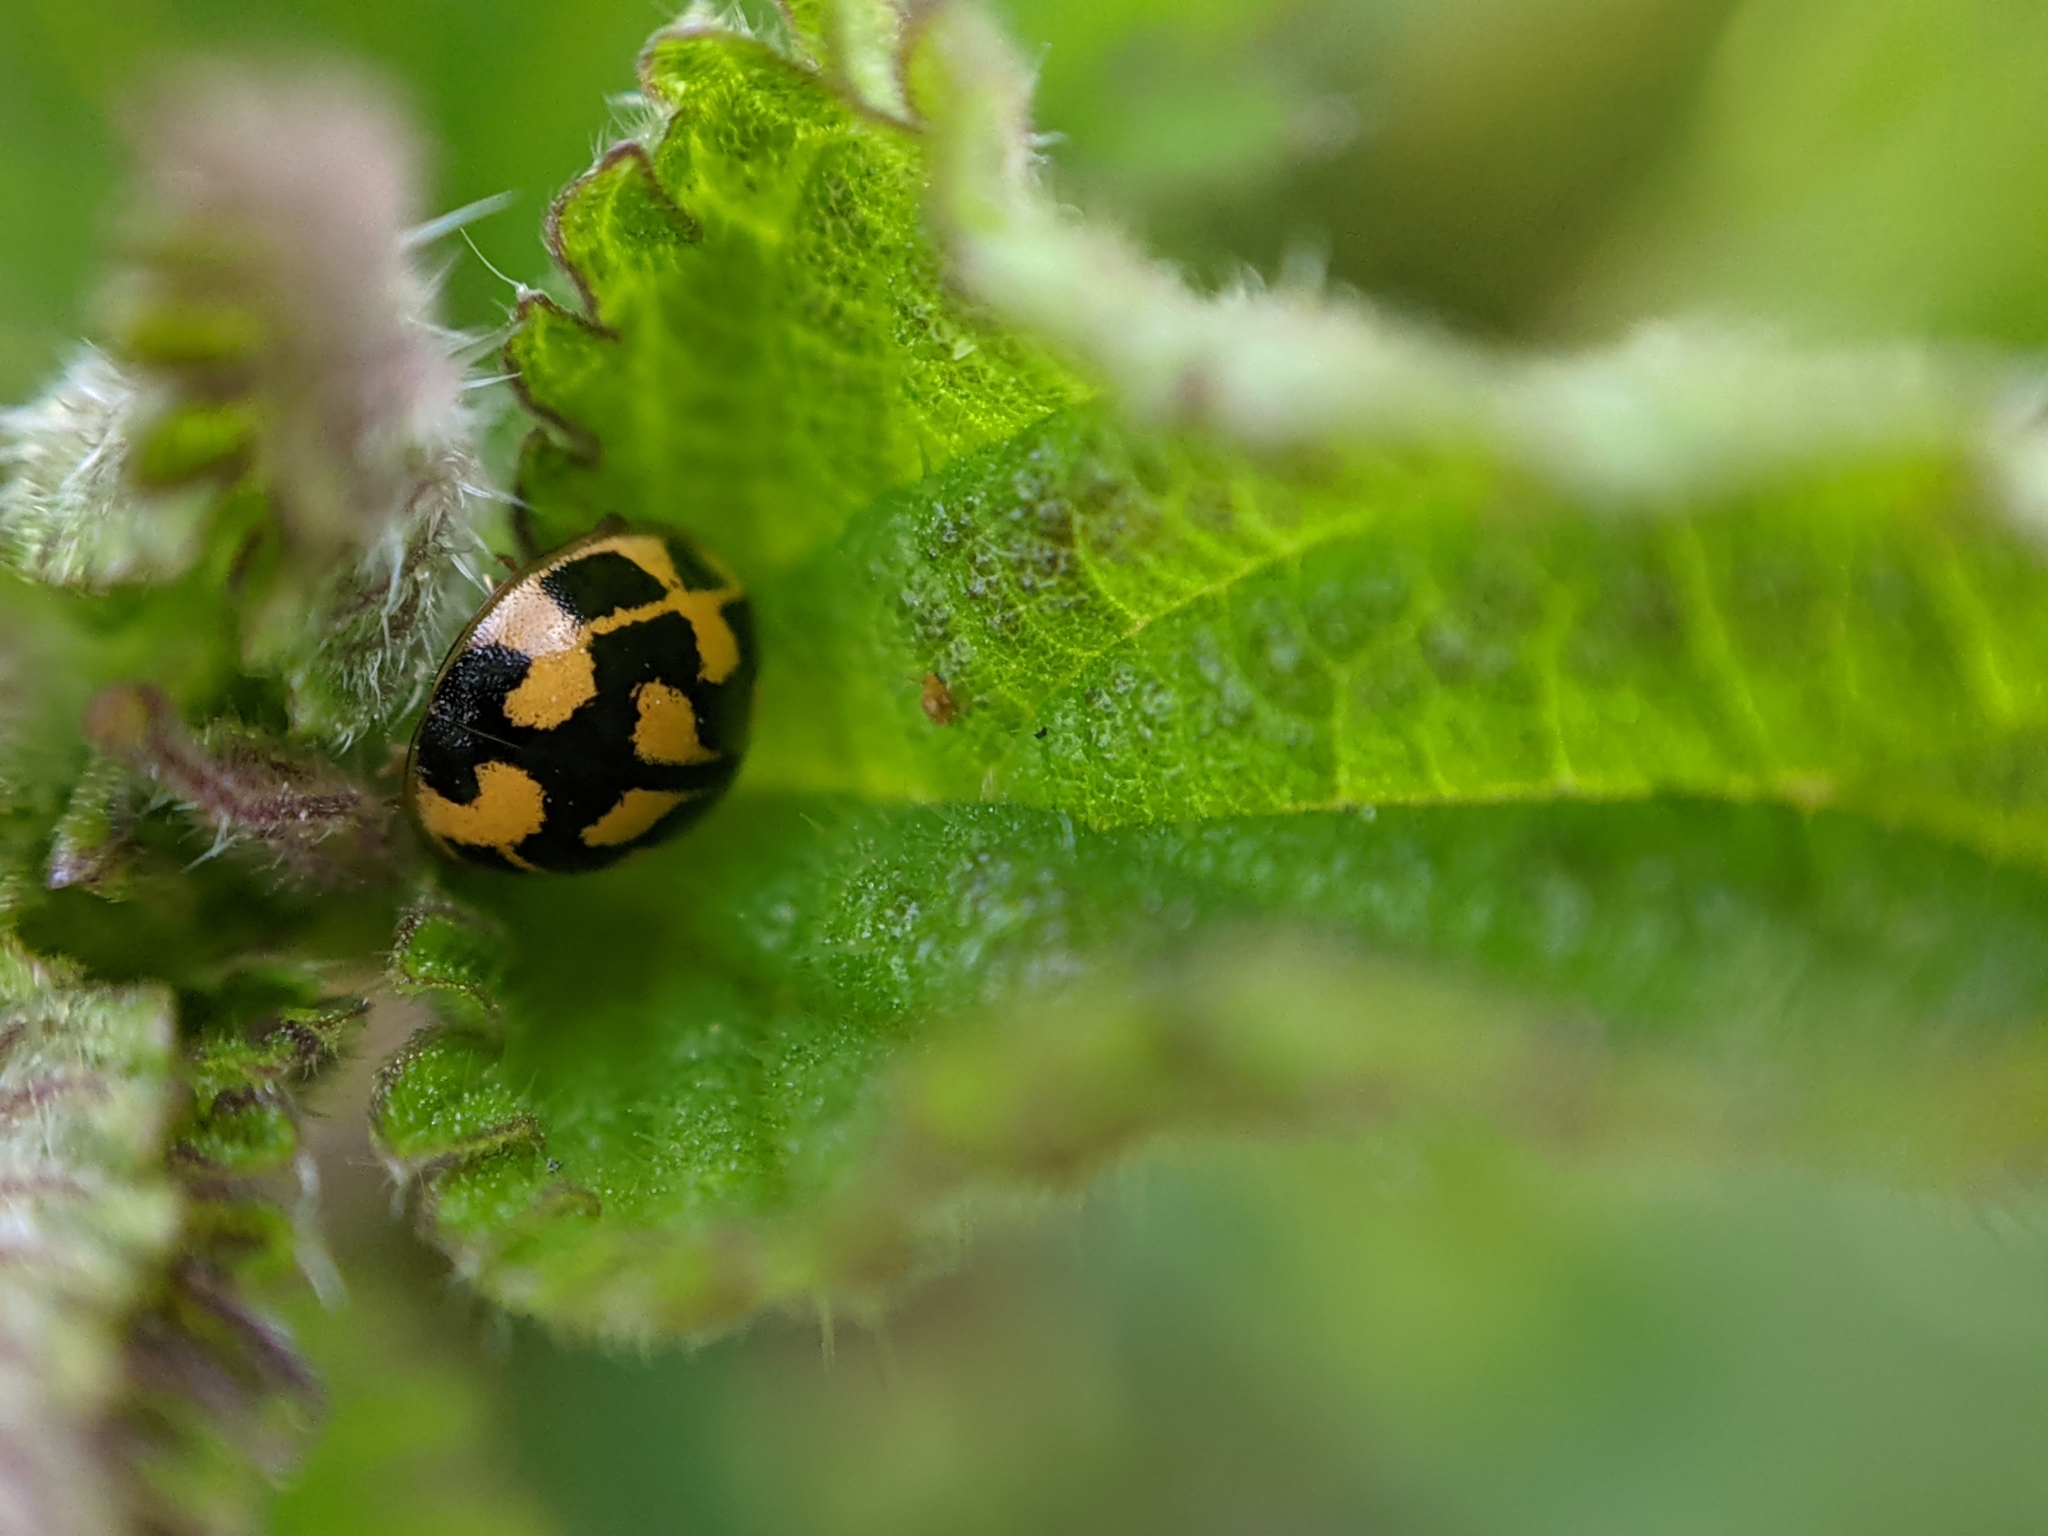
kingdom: Animalia
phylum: Arthropoda
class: Insecta
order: Coleoptera
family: Coccinellidae
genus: Propylaea
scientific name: Propylaea quatuordecimpunctata
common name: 14-spotted ladybird beetle
